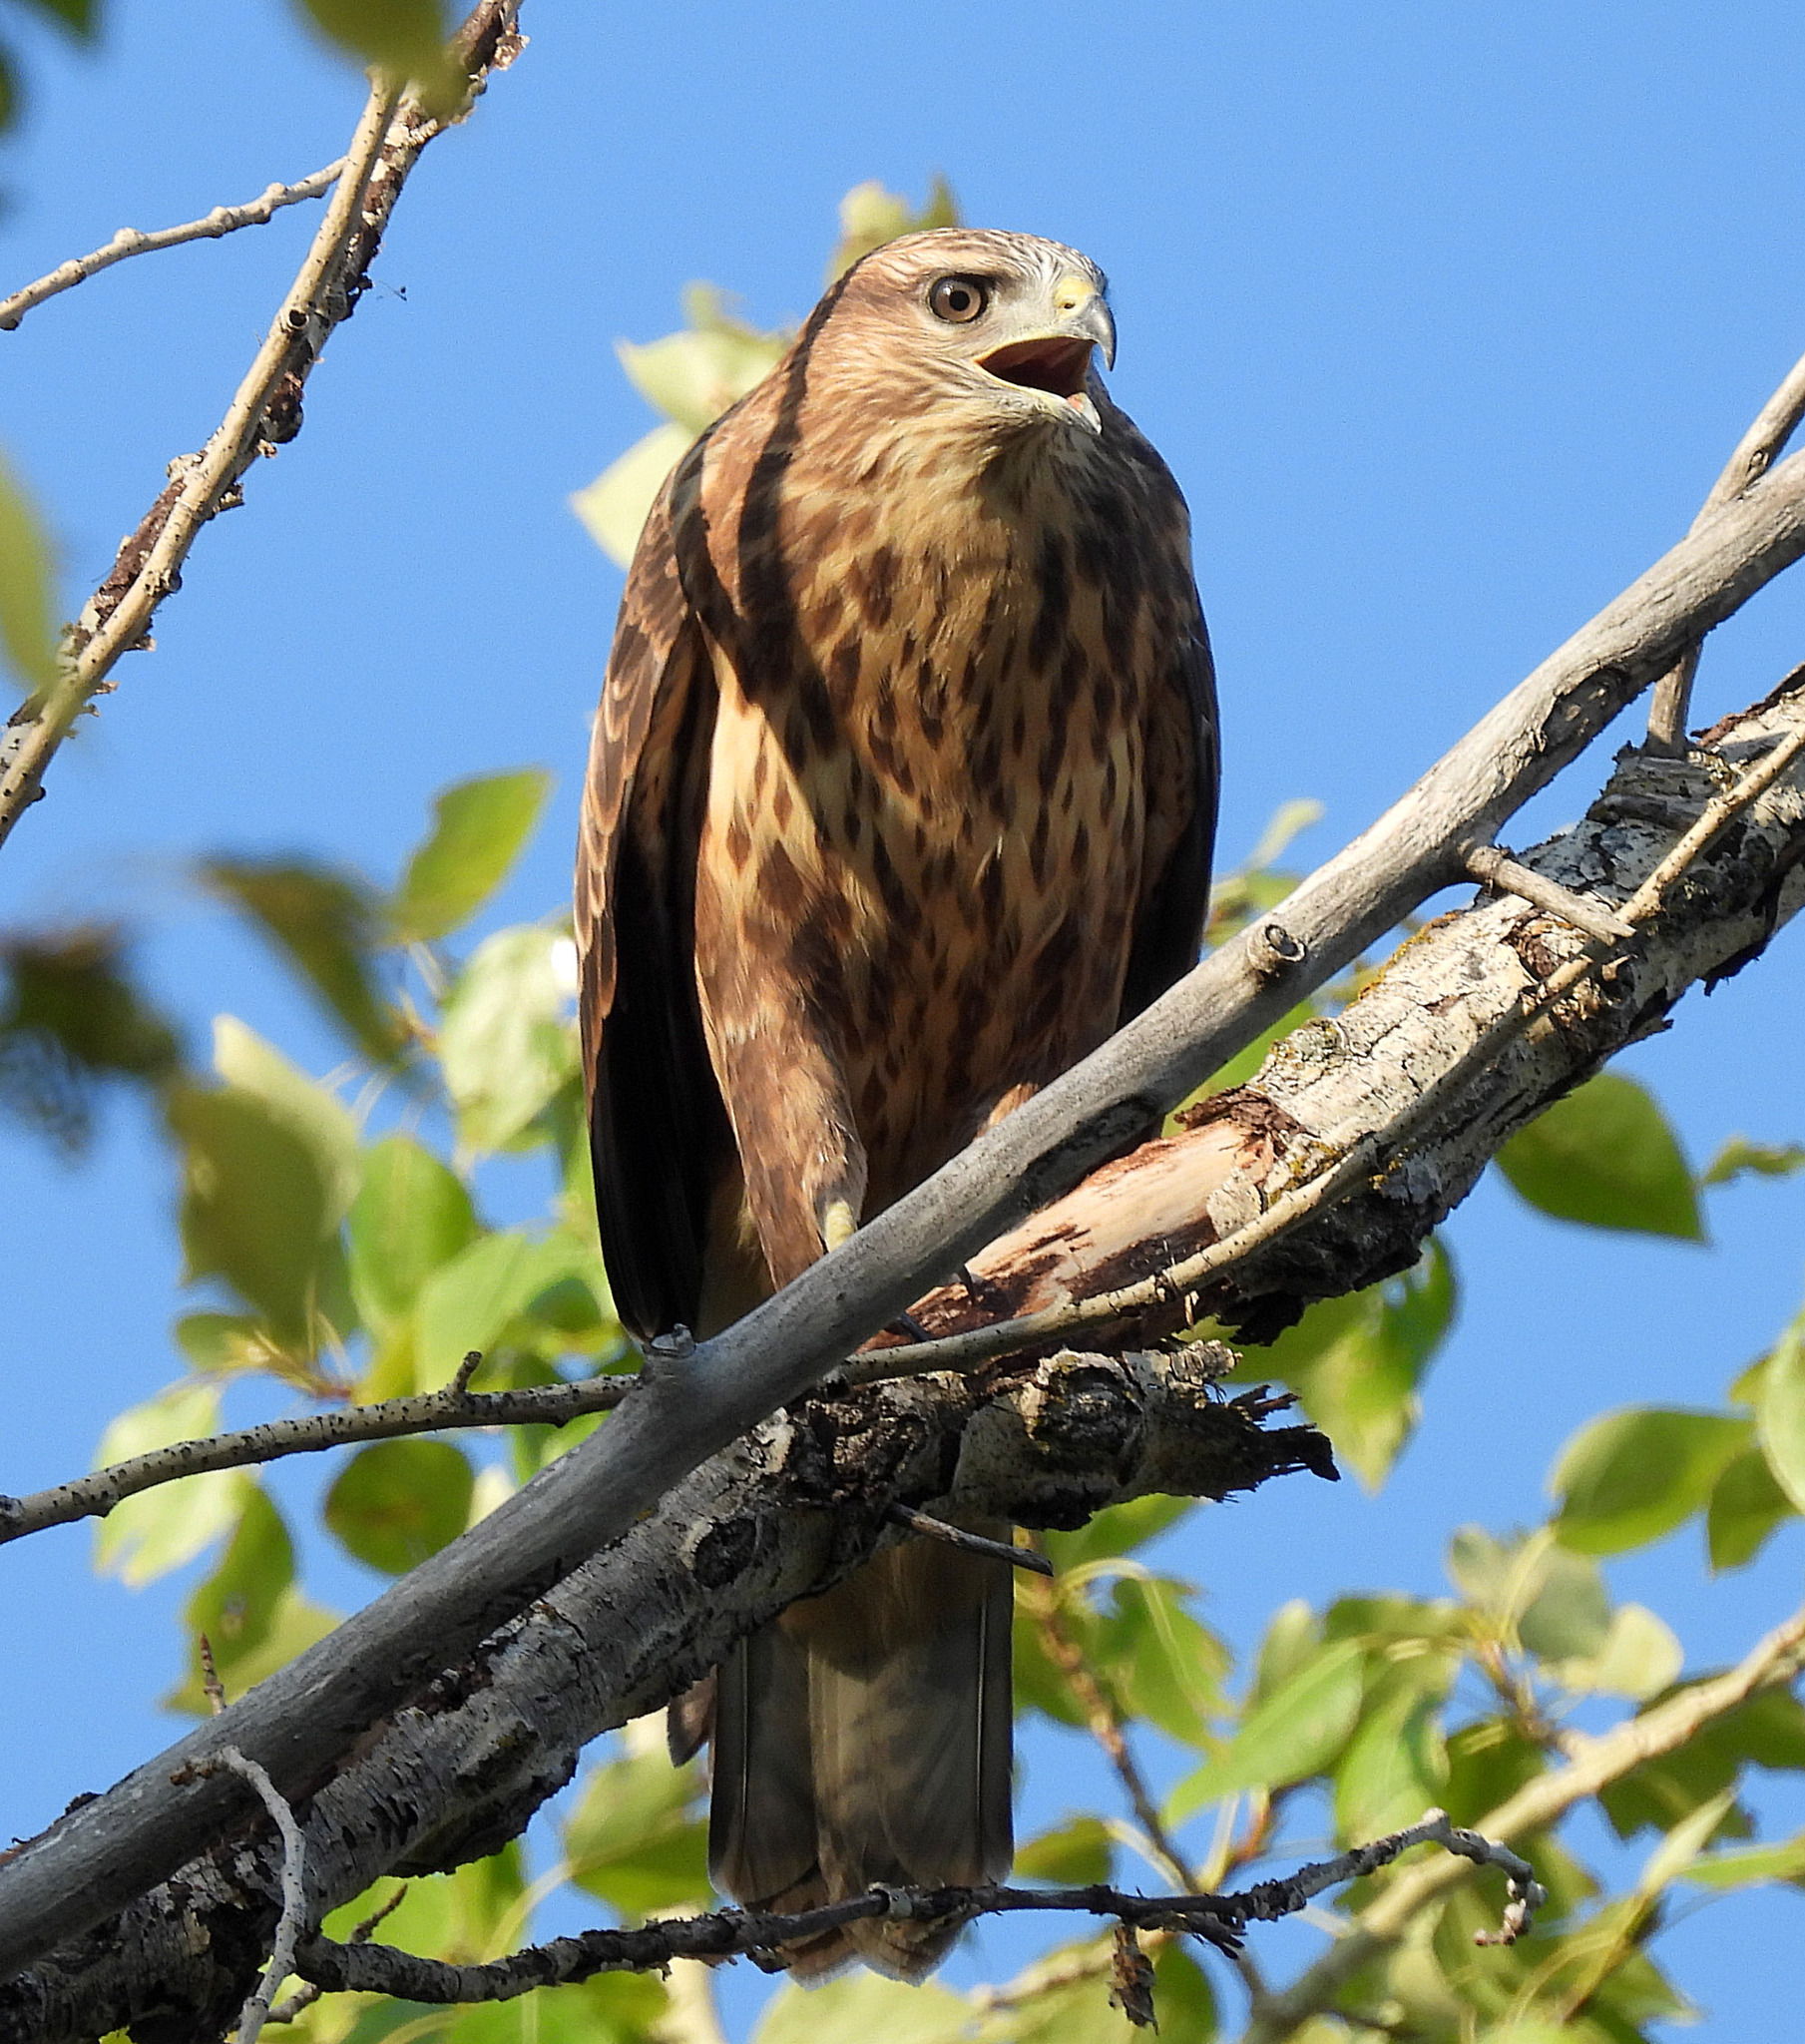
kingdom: Animalia
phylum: Chordata
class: Aves
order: Accipitriformes
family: Accipitridae
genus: Buteo
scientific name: Buteo buteo
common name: Common buzzard
